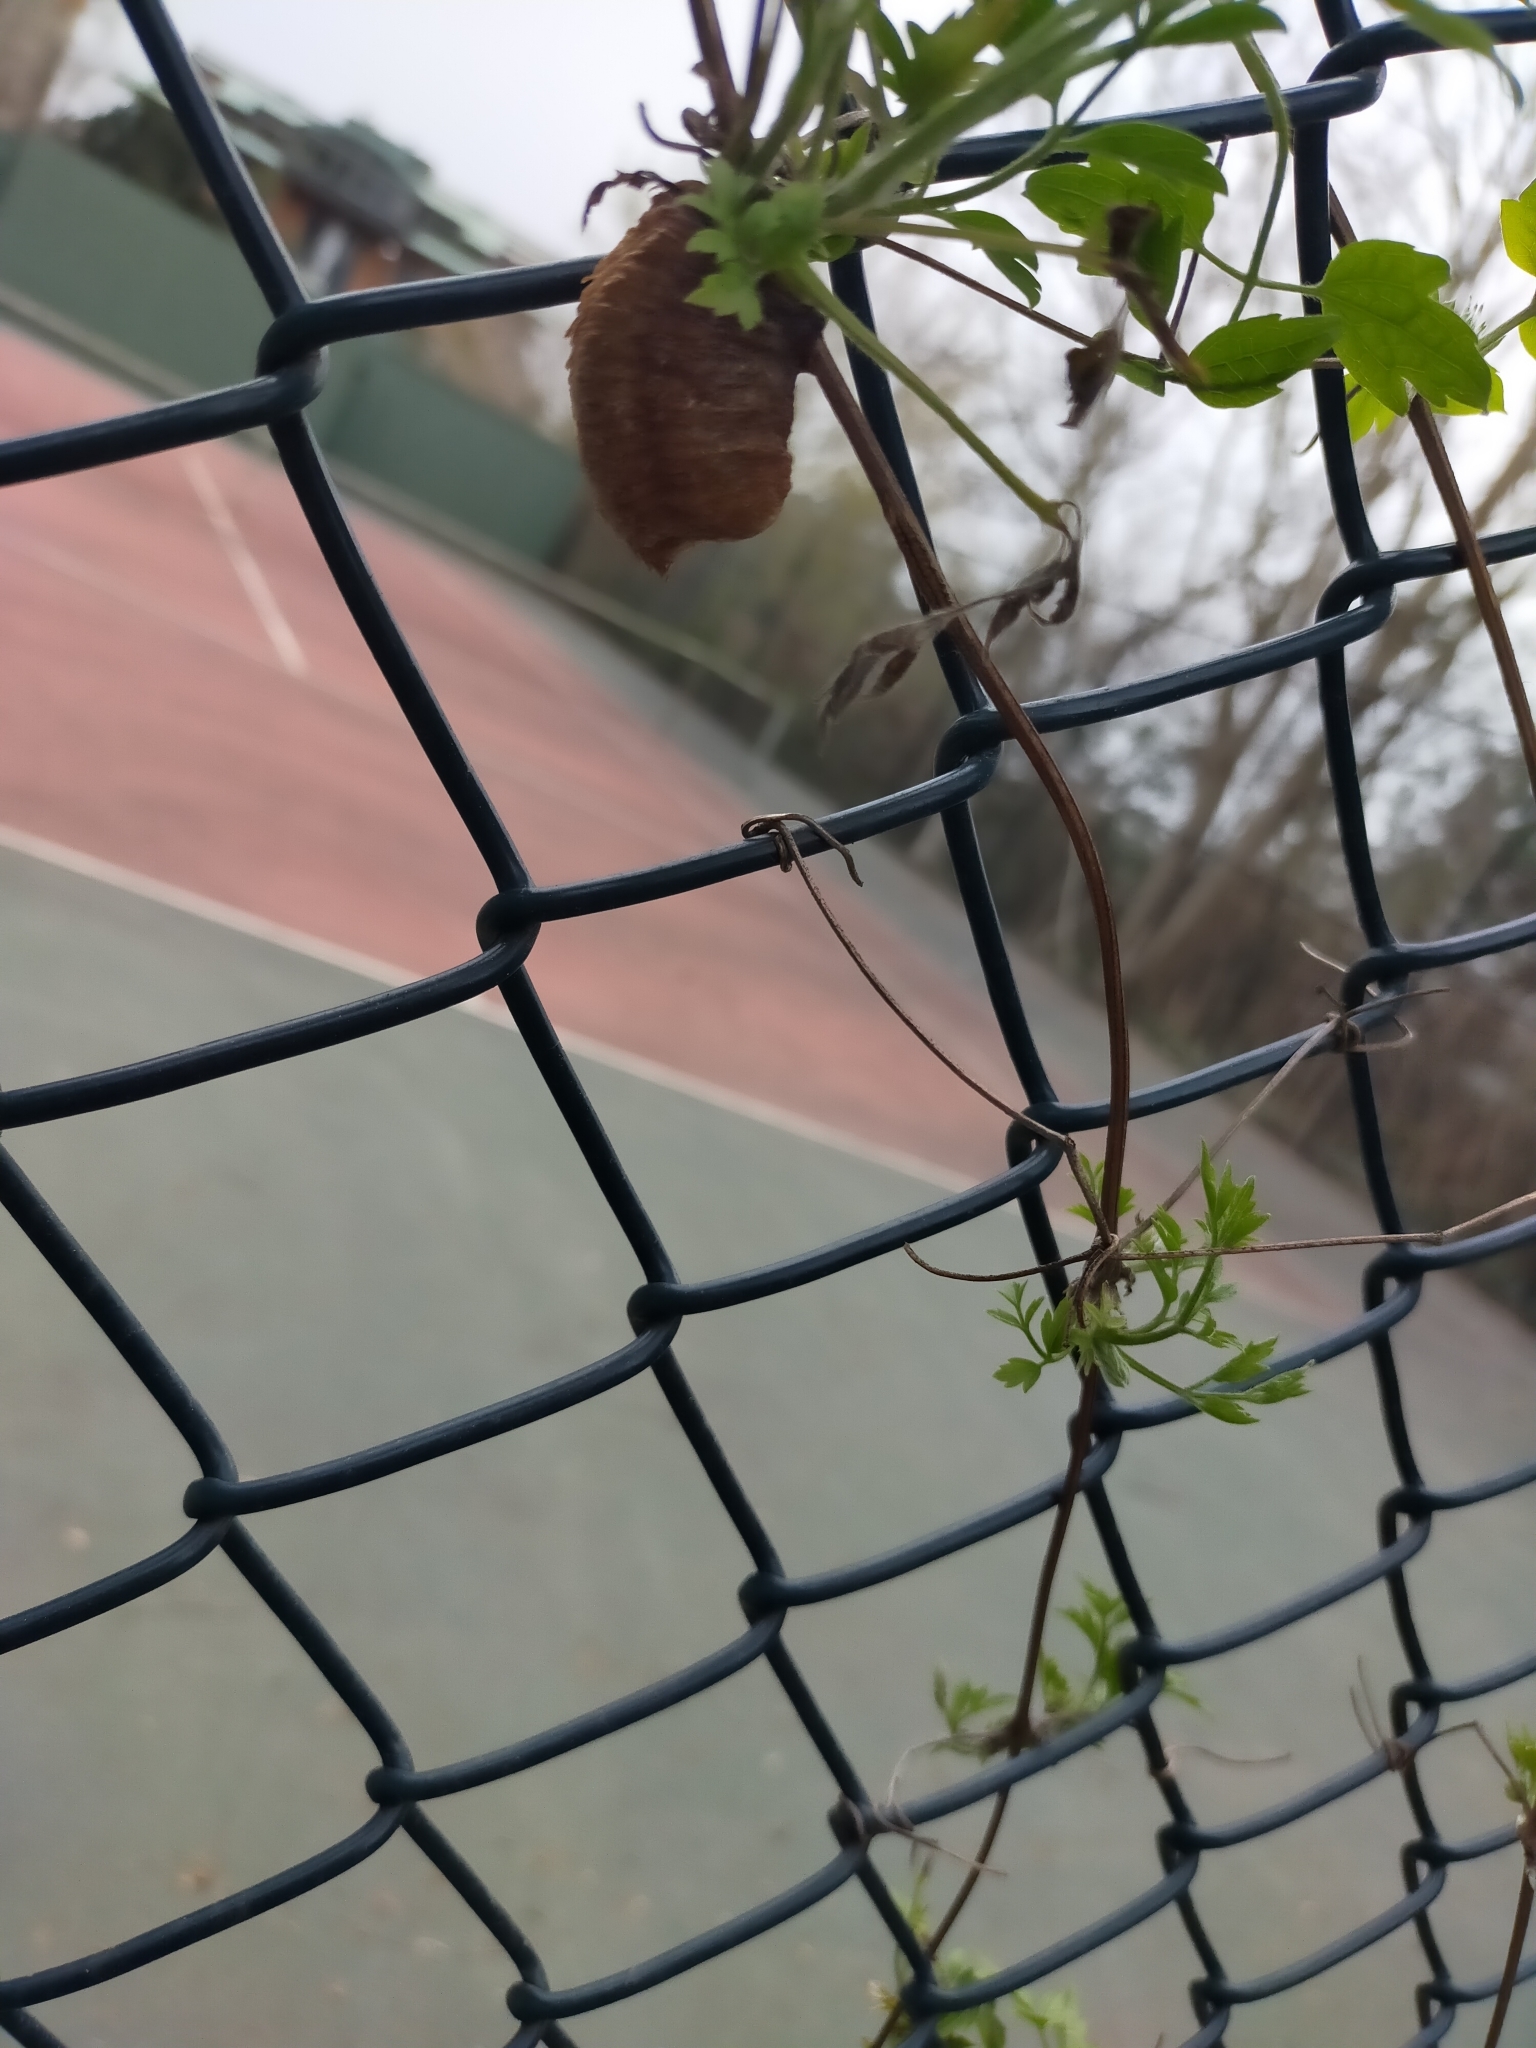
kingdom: Animalia
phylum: Arthropoda
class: Insecta
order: Mantodea
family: Mantidae
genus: Hierodula
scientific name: Hierodula transcaucasica
